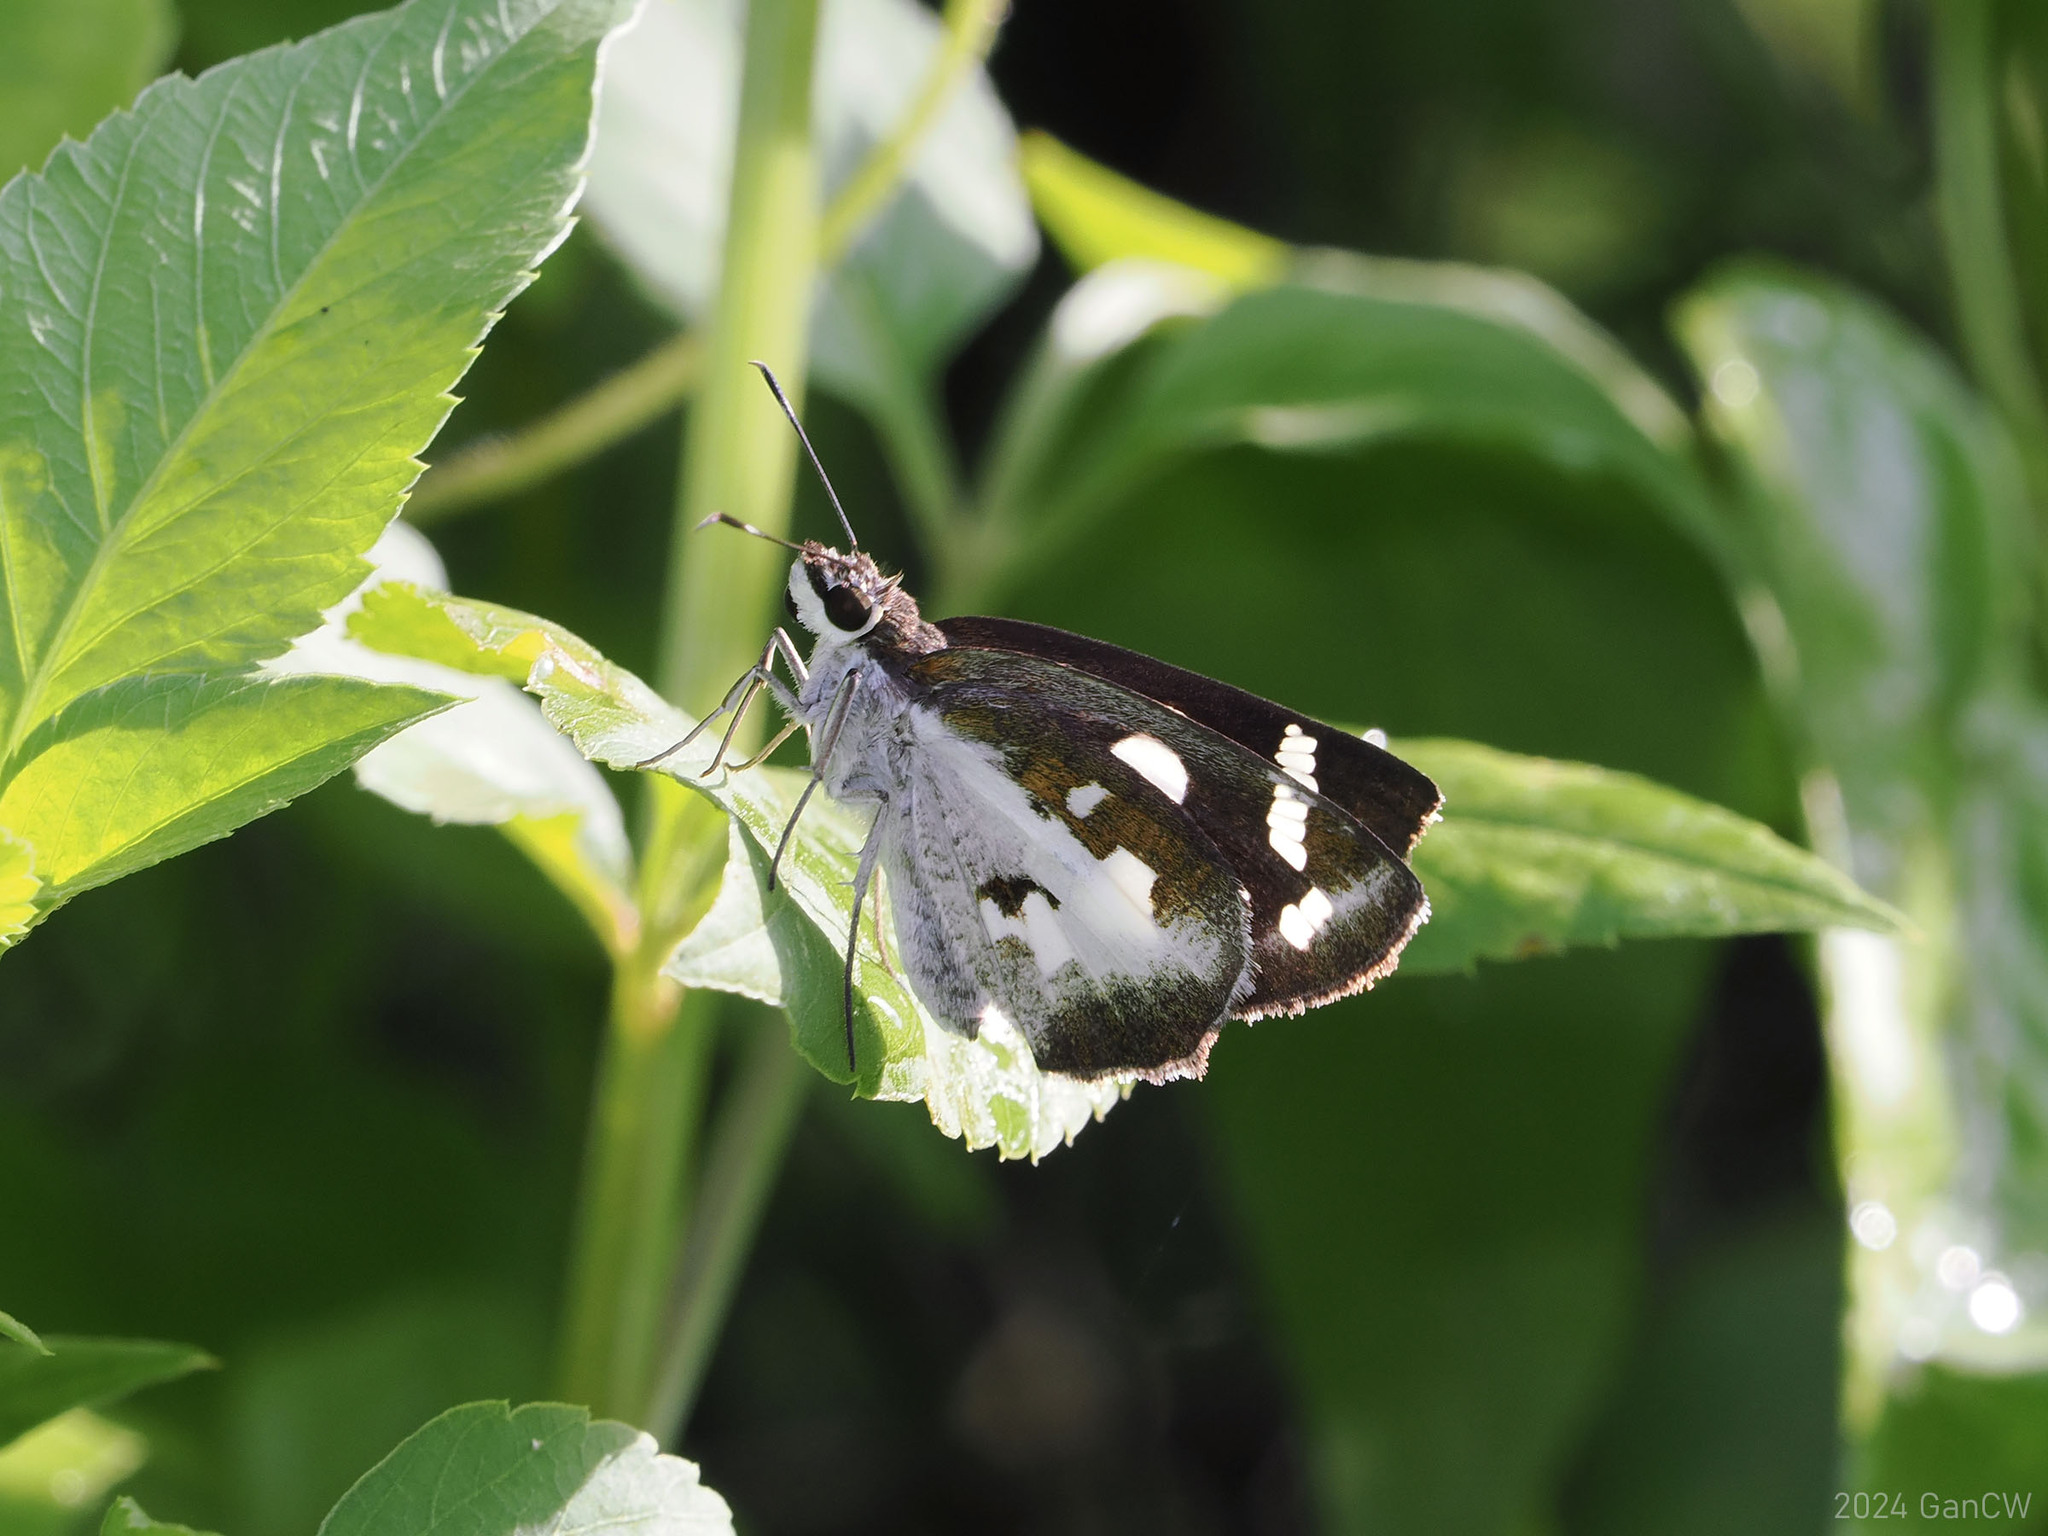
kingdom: Animalia
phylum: Arthropoda
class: Insecta
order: Lepidoptera
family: Hesperiidae
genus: Udaspes
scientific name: Udaspes folus
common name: Grass demon
